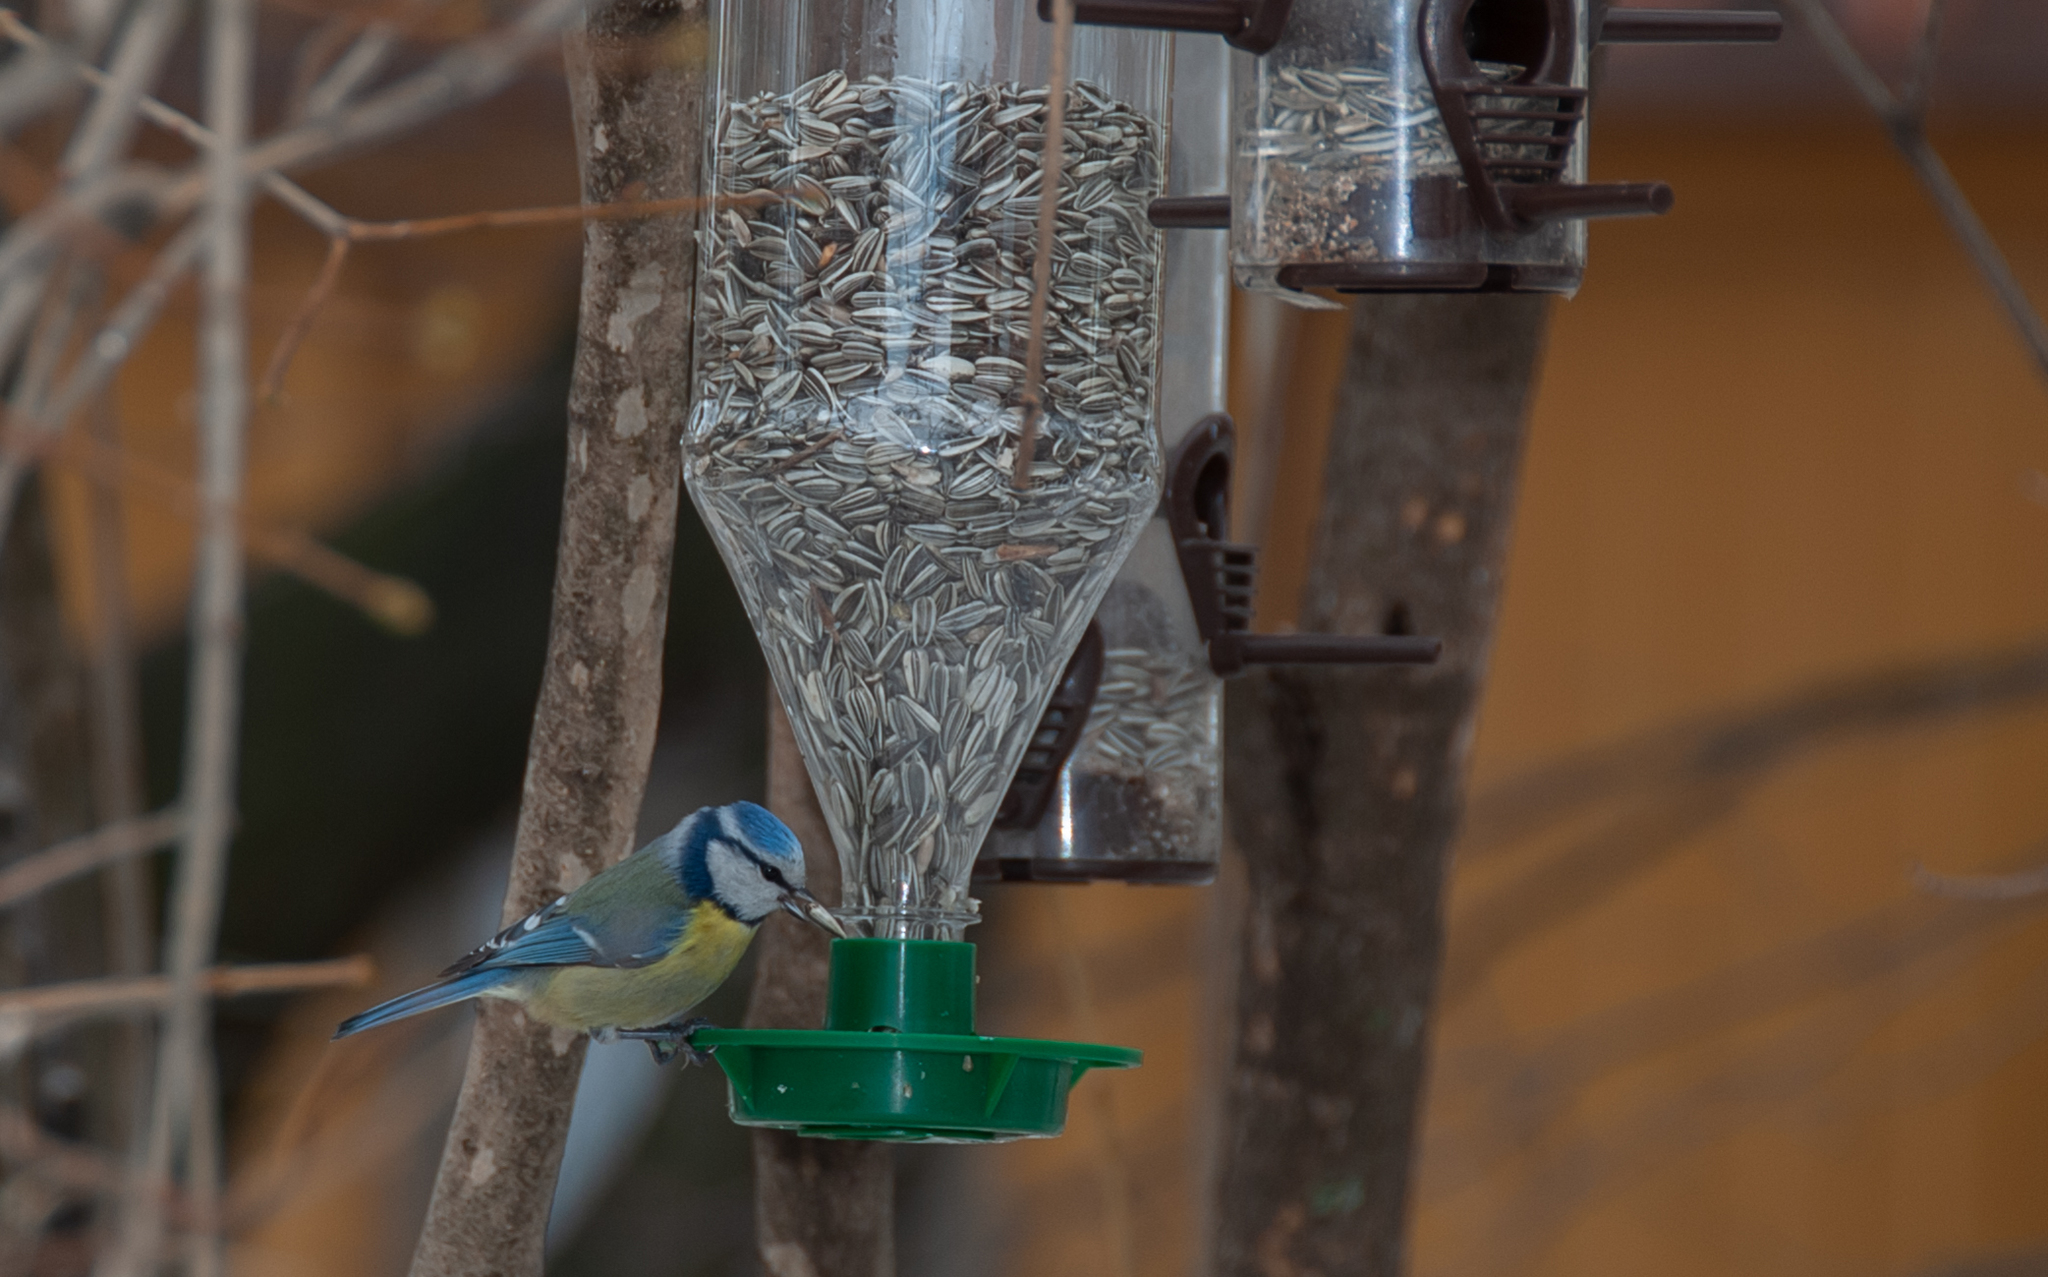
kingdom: Animalia
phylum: Chordata
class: Aves
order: Passeriformes
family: Paridae
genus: Cyanistes
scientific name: Cyanistes caeruleus
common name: Eurasian blue tit
